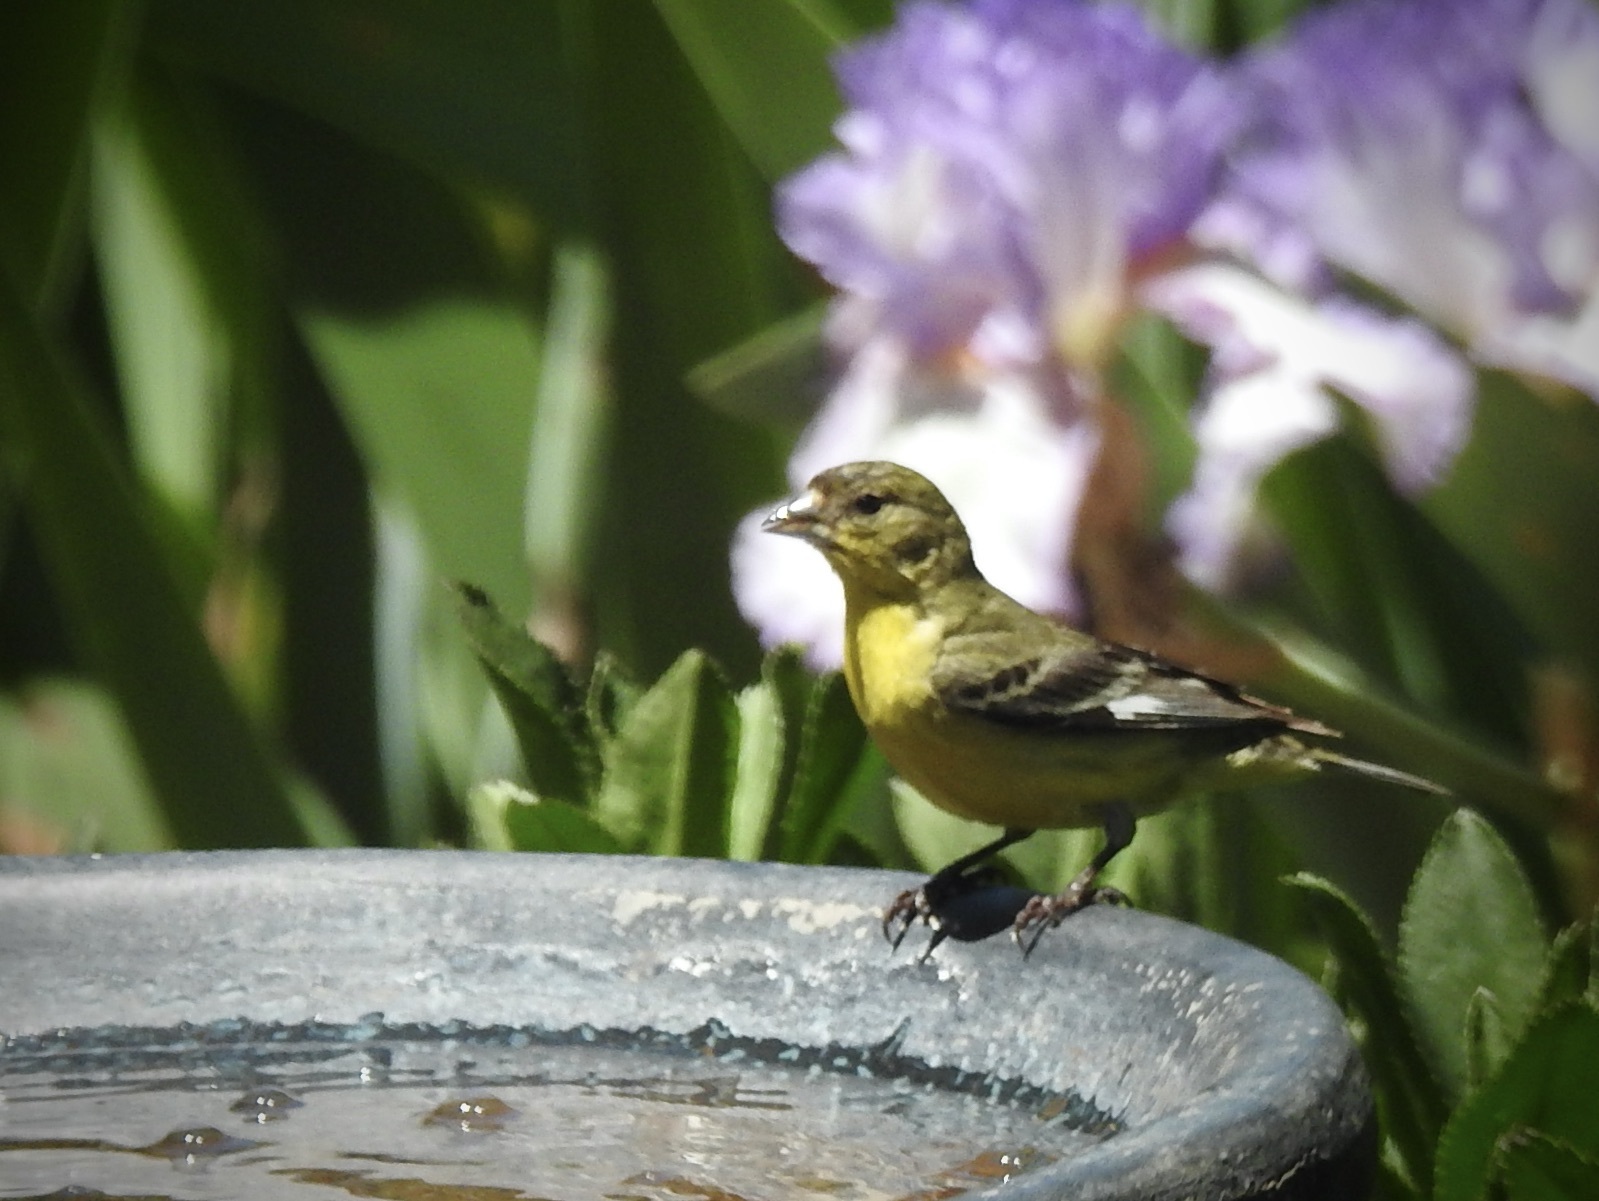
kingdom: Animalia
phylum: Chordata
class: Aves
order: Passeriformes
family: Fringillidae
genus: Spinus
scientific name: Spinus psaltria
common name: Lesser goldfinch
